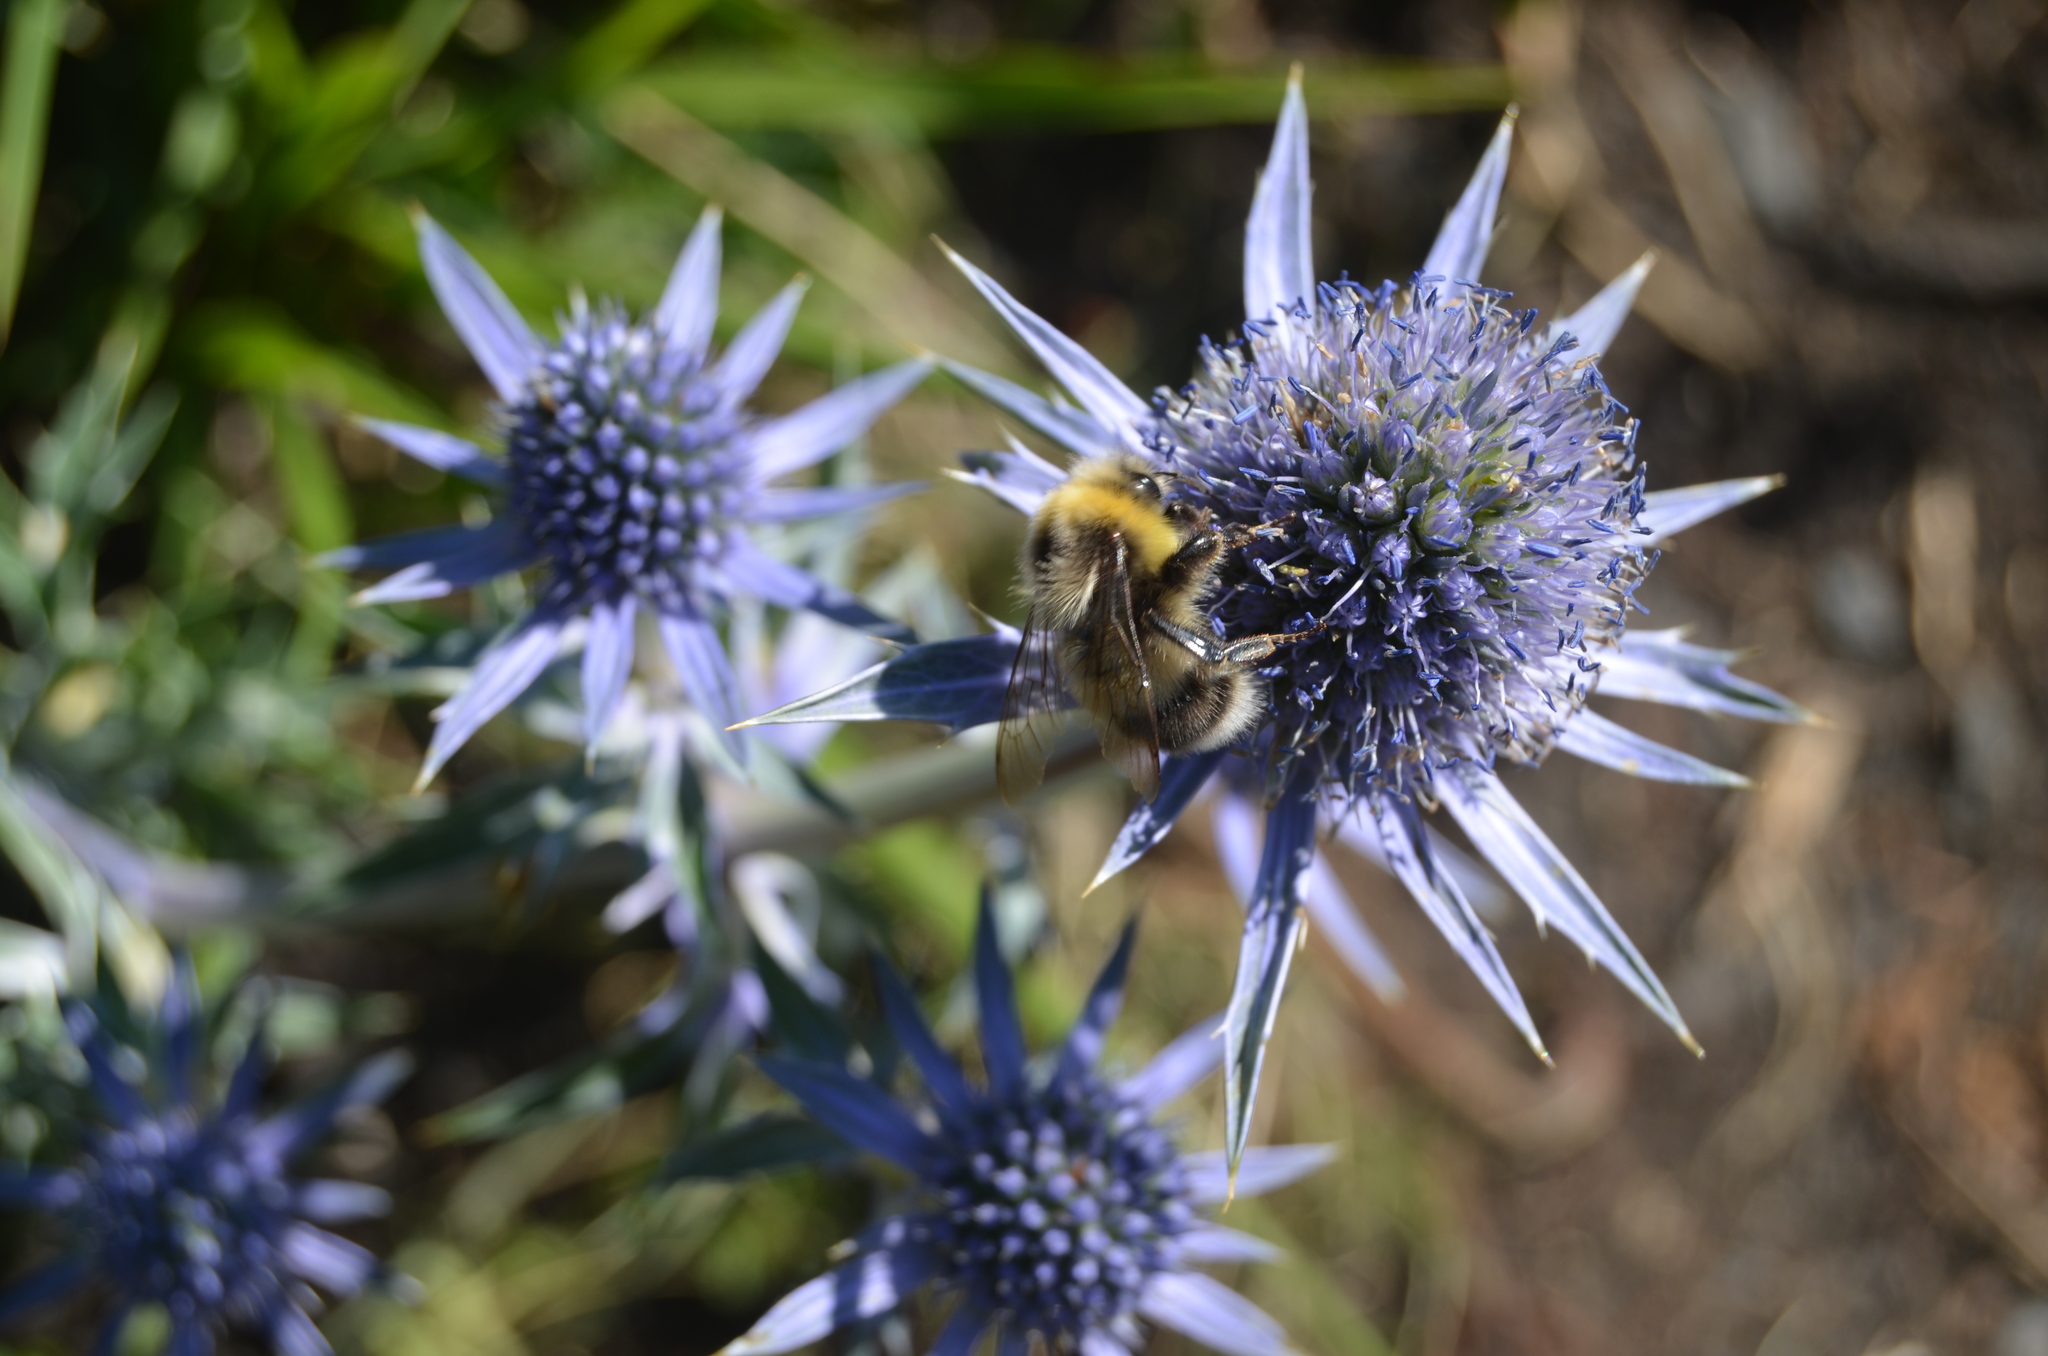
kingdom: Animalia
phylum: Arthropoda
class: Insecta
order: Hymenoptera
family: Apidae
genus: Bombus
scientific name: Bombus lucorum
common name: White-tailed bumblebee
